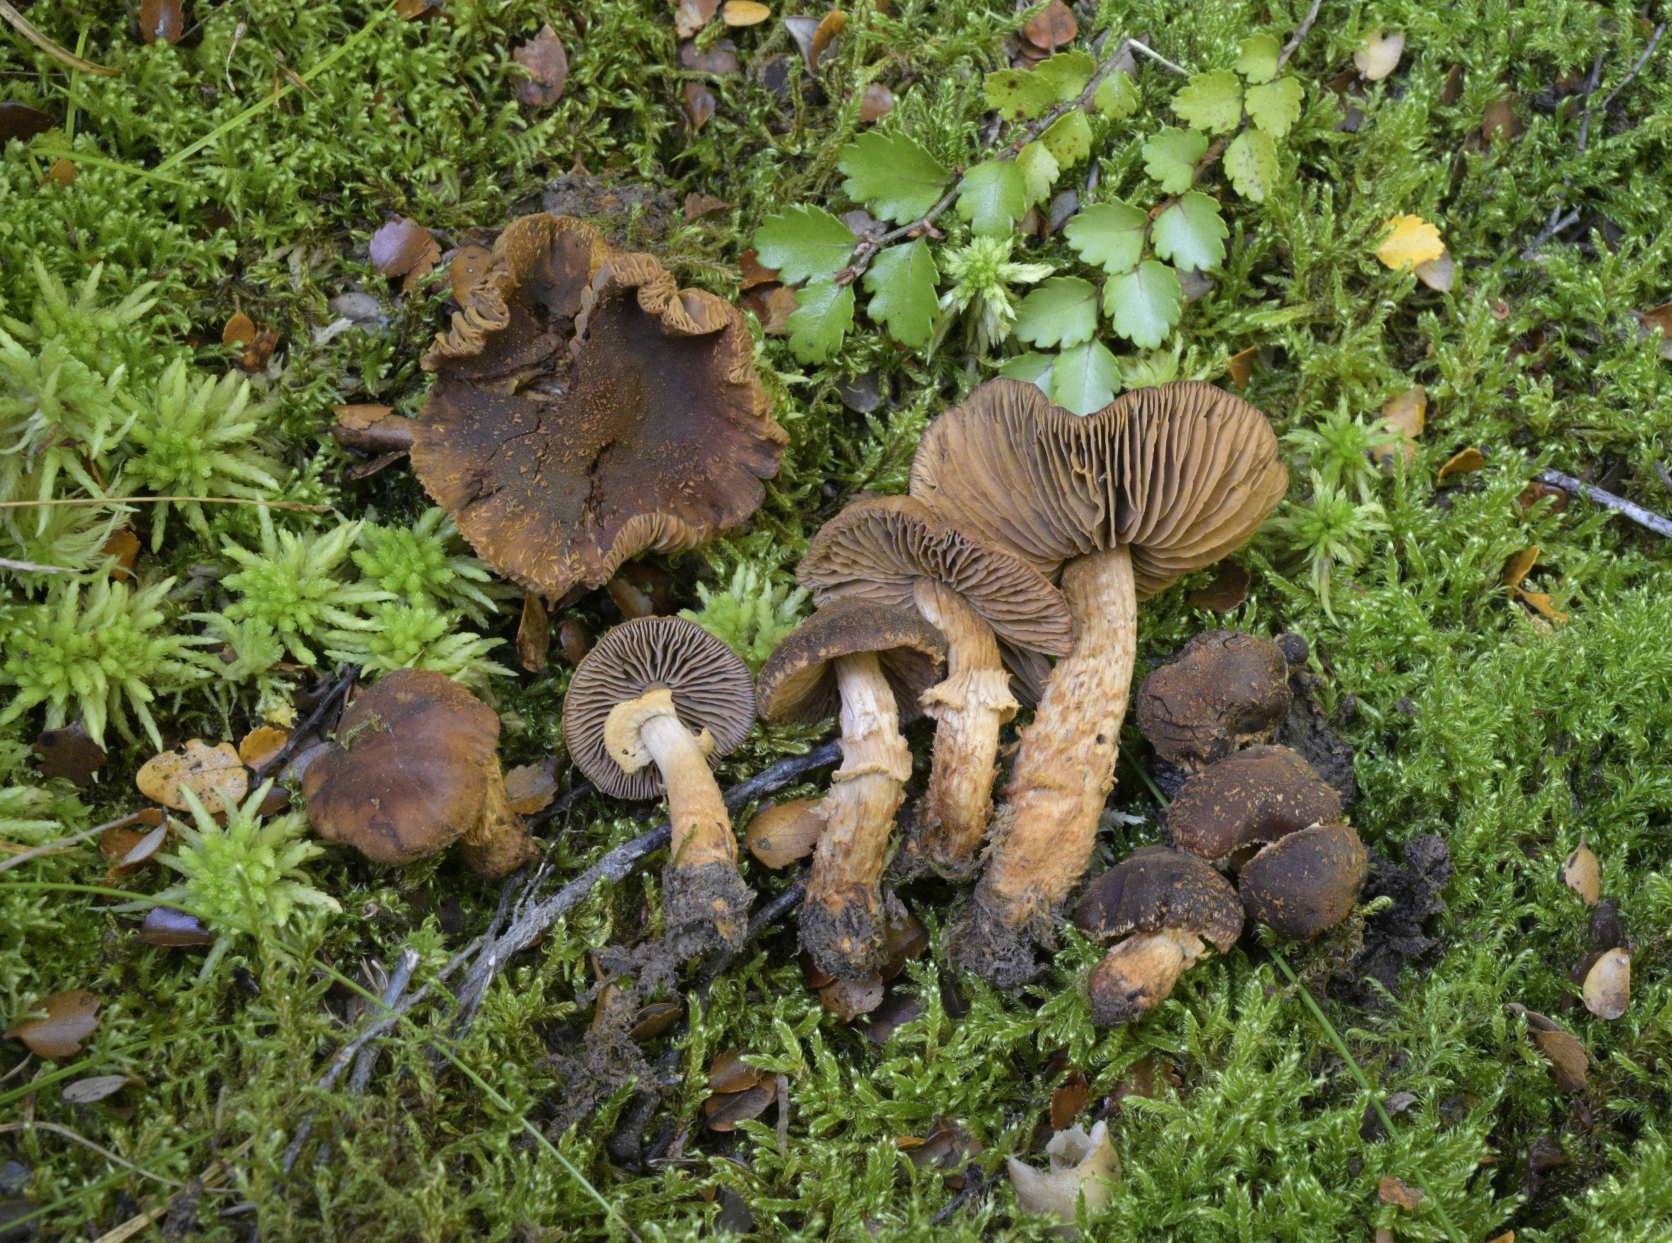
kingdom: Fungi
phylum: Basidiomycota
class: Agaricomycetes
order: Agaricales
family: Bolbitiaceae
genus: Descolea
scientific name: Descolea gunnii
